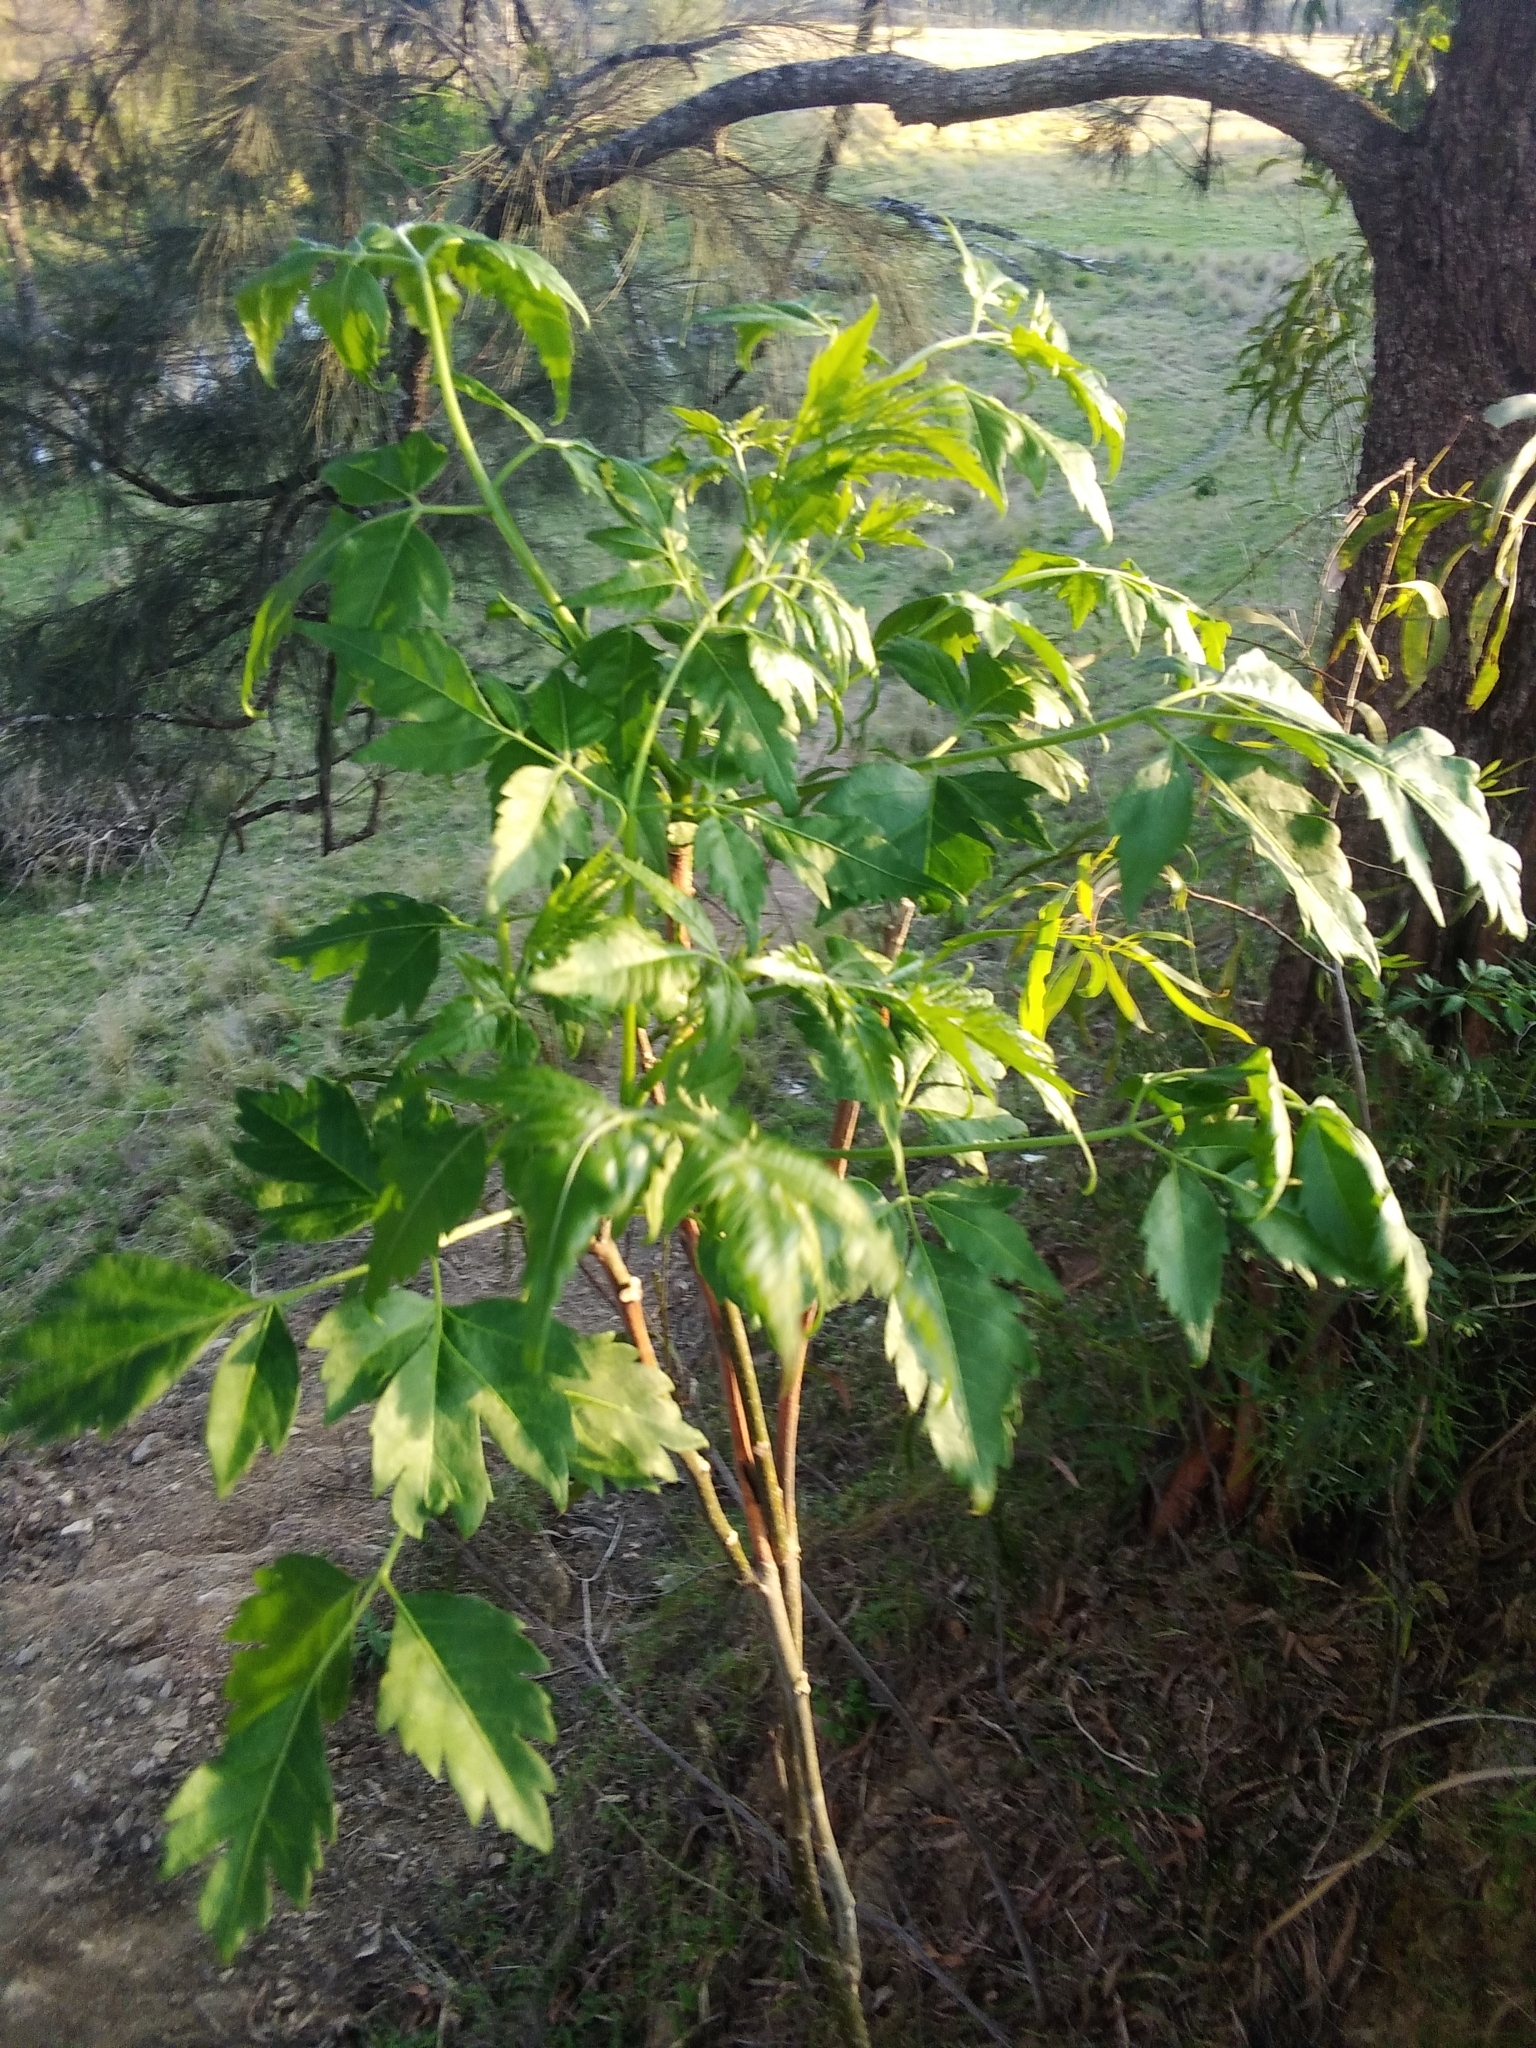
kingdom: Plantae
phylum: Tracheophyta
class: Magnoliopsida
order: Sapindales
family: Meliaceae
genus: Melia
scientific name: Melia azedarach
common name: Chinaberrytree
